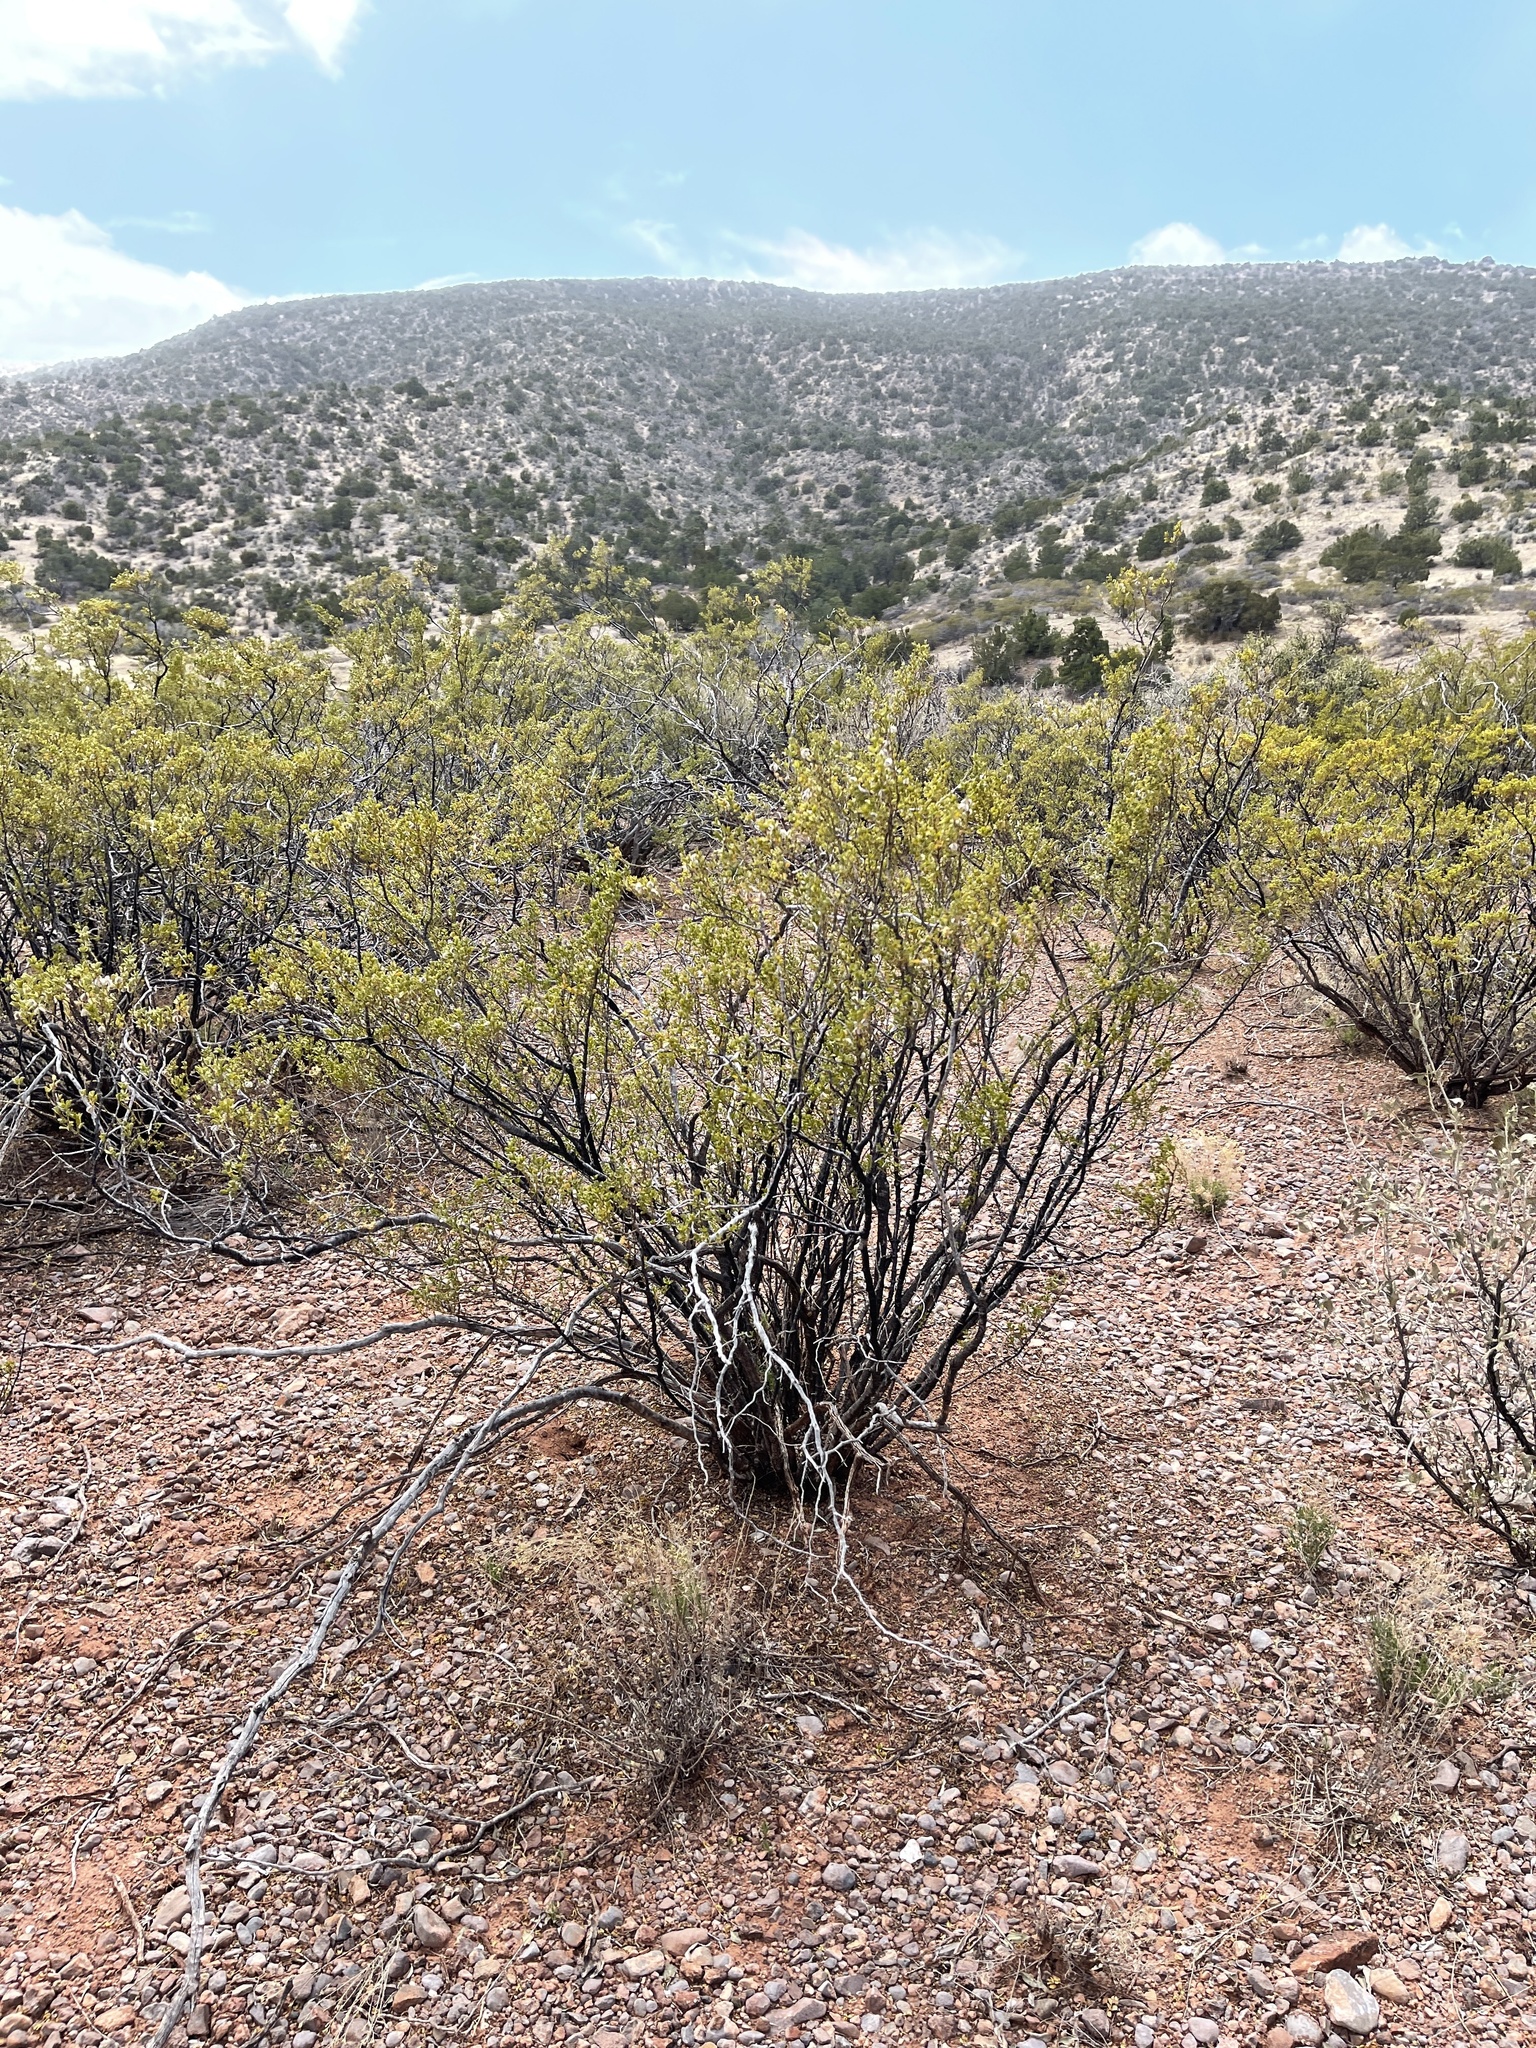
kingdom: Plantae
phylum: Tracheophyta
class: Magnoliopsida
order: Zygophyllales
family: Zygophyllaceae
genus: Larrea
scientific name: Larrea tridentata
